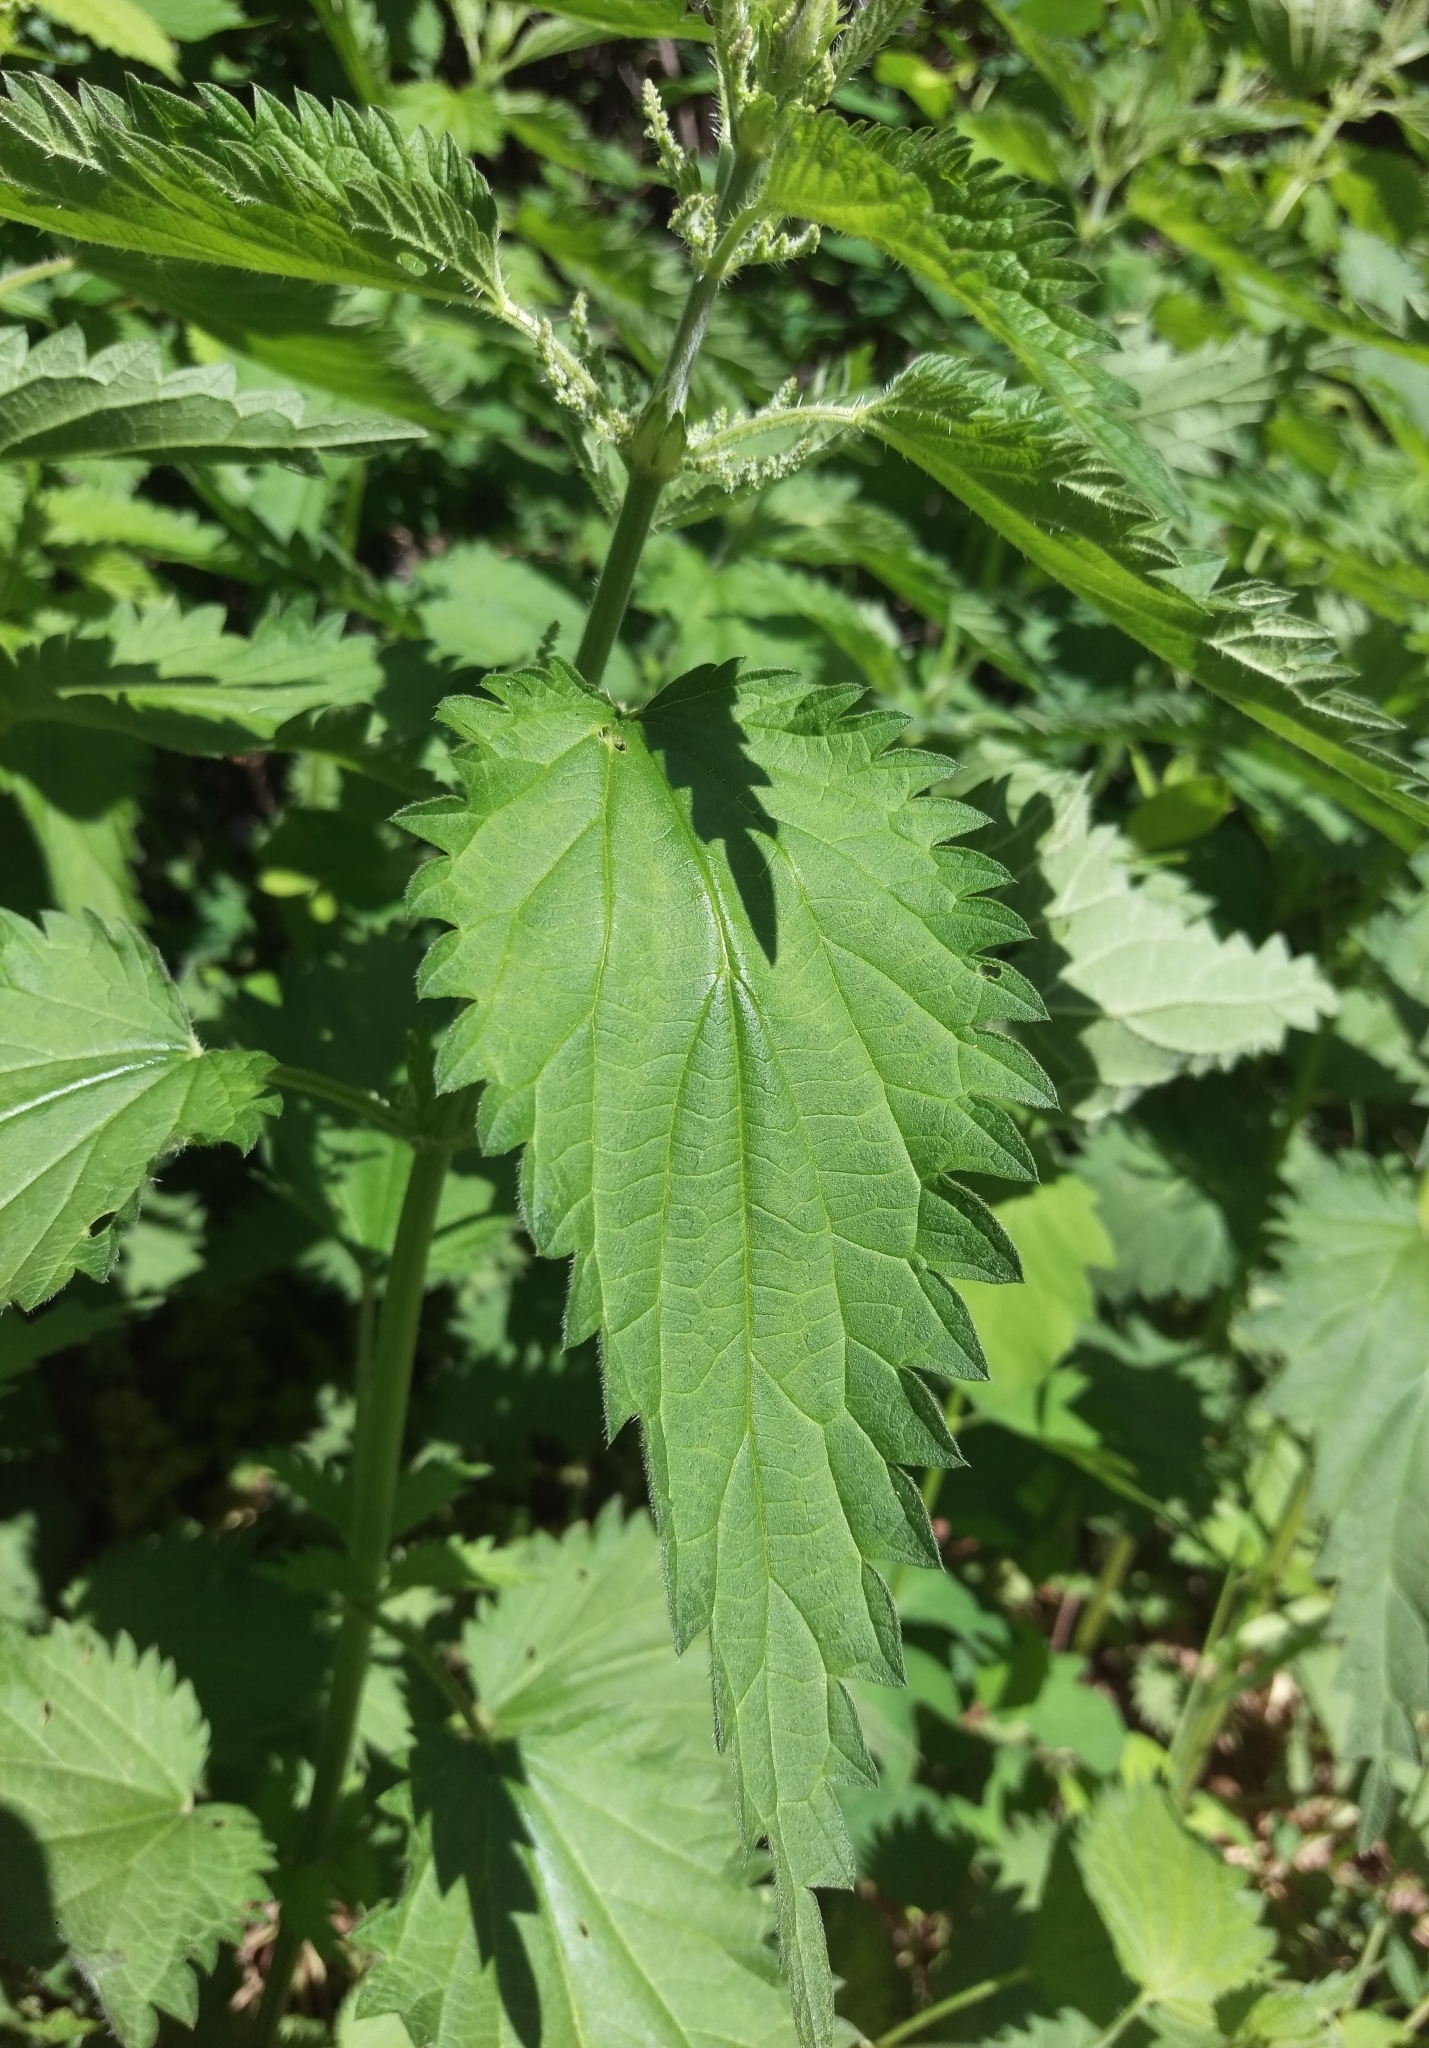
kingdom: Plantae
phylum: Tracheophyta
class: Magnoliopsida
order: Rosales
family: Urticaceae
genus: Urtica
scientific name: Urtica dioica
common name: Common nettle
